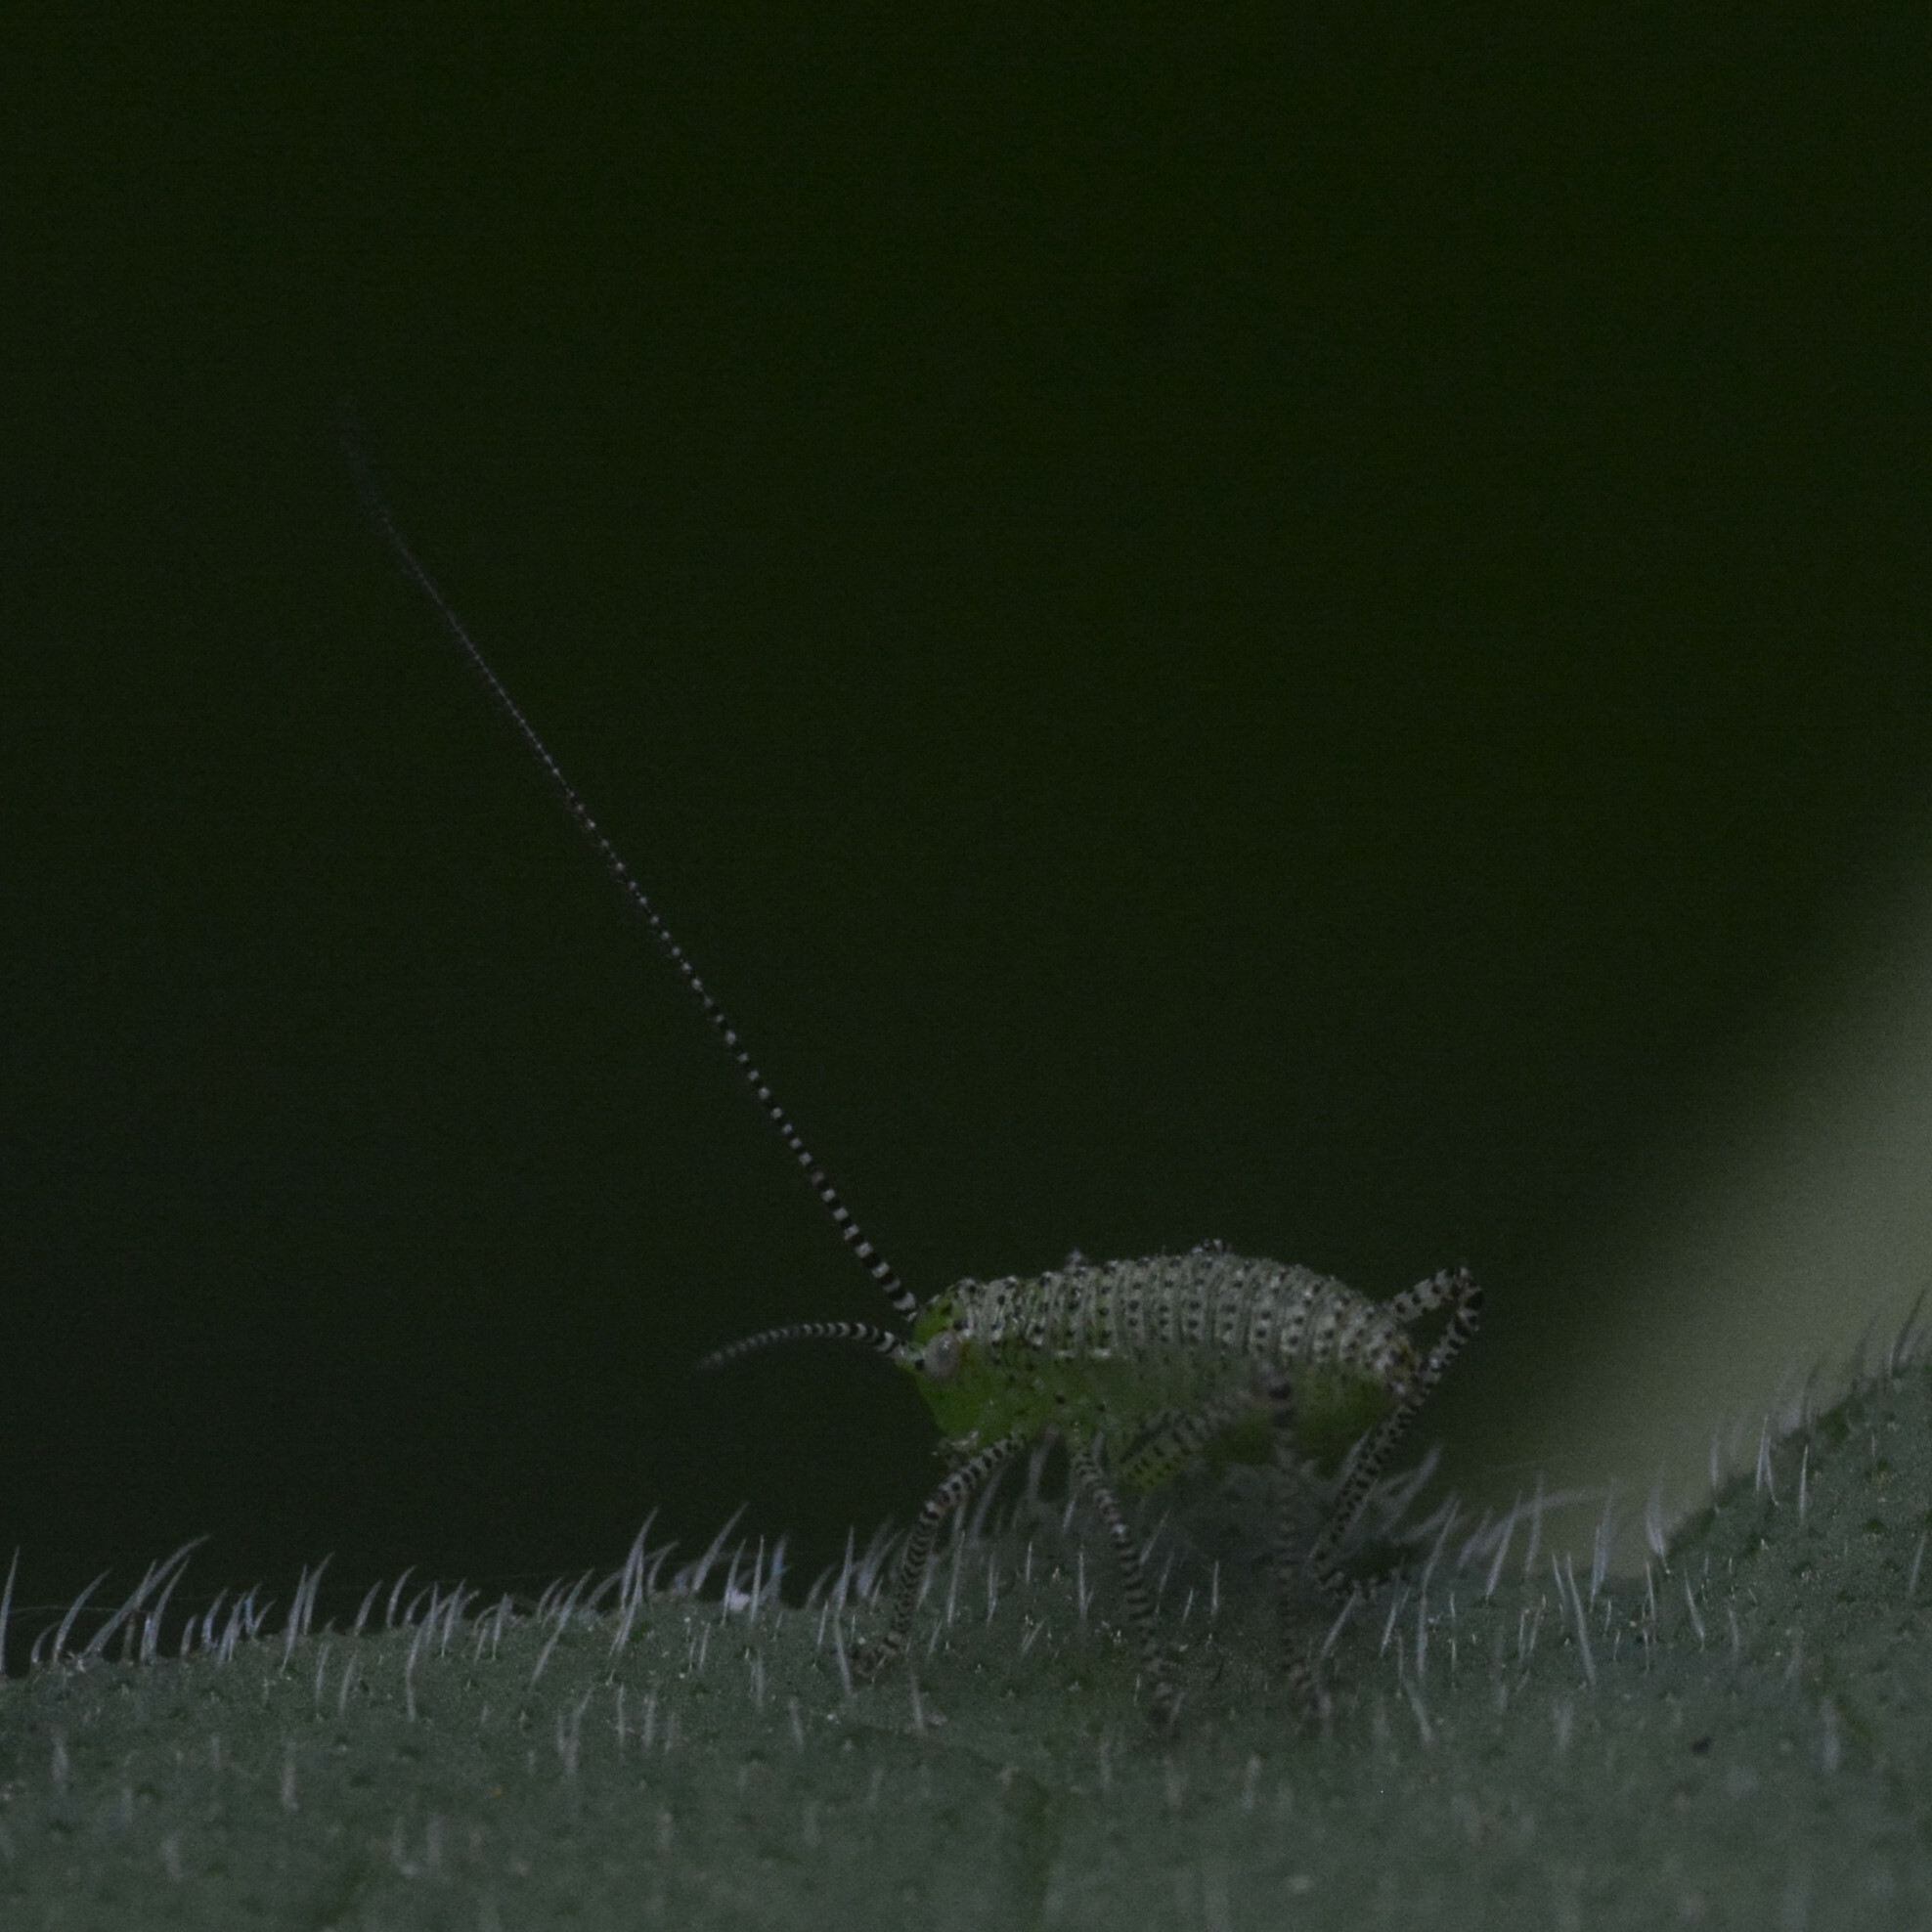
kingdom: Animalia
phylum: Arthropoda
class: Insecta
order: Orthoptera
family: Tettigoniidae
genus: Leptophyes
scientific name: Leptophyes punctatissima
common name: Speckled bush-cricket
